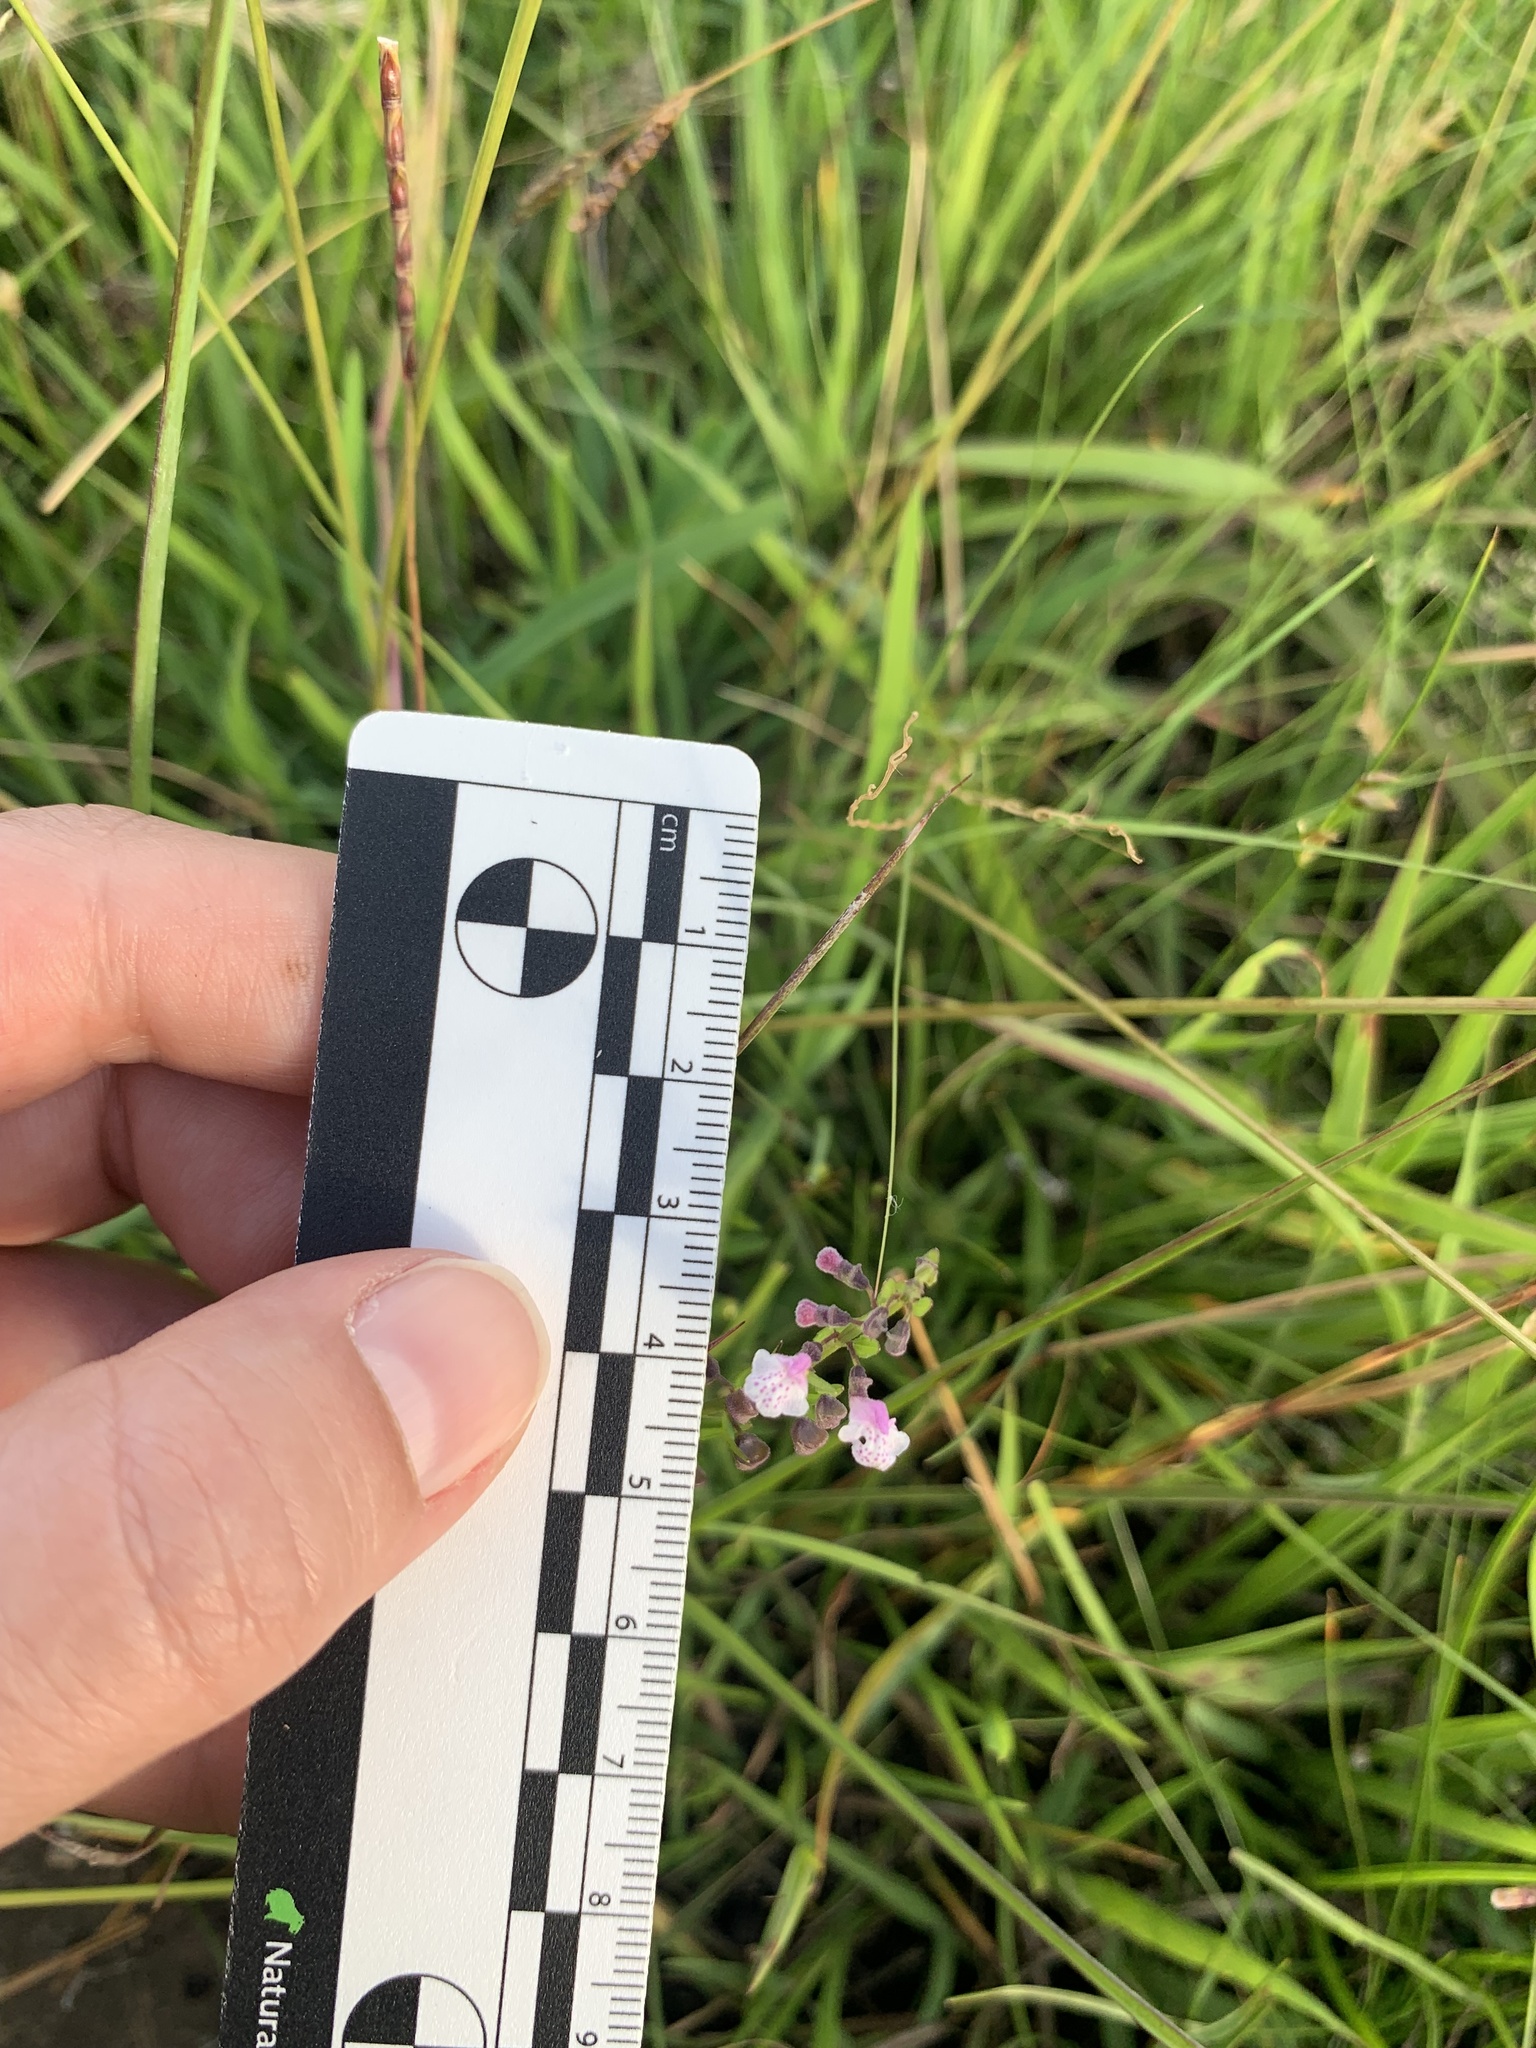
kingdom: Plantae
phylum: Tracheophyta
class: Magnoliopsida
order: Lamiales
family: Lamiaceae
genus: Scutellaria
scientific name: Scutellaria racemosa
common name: South american skullcap
